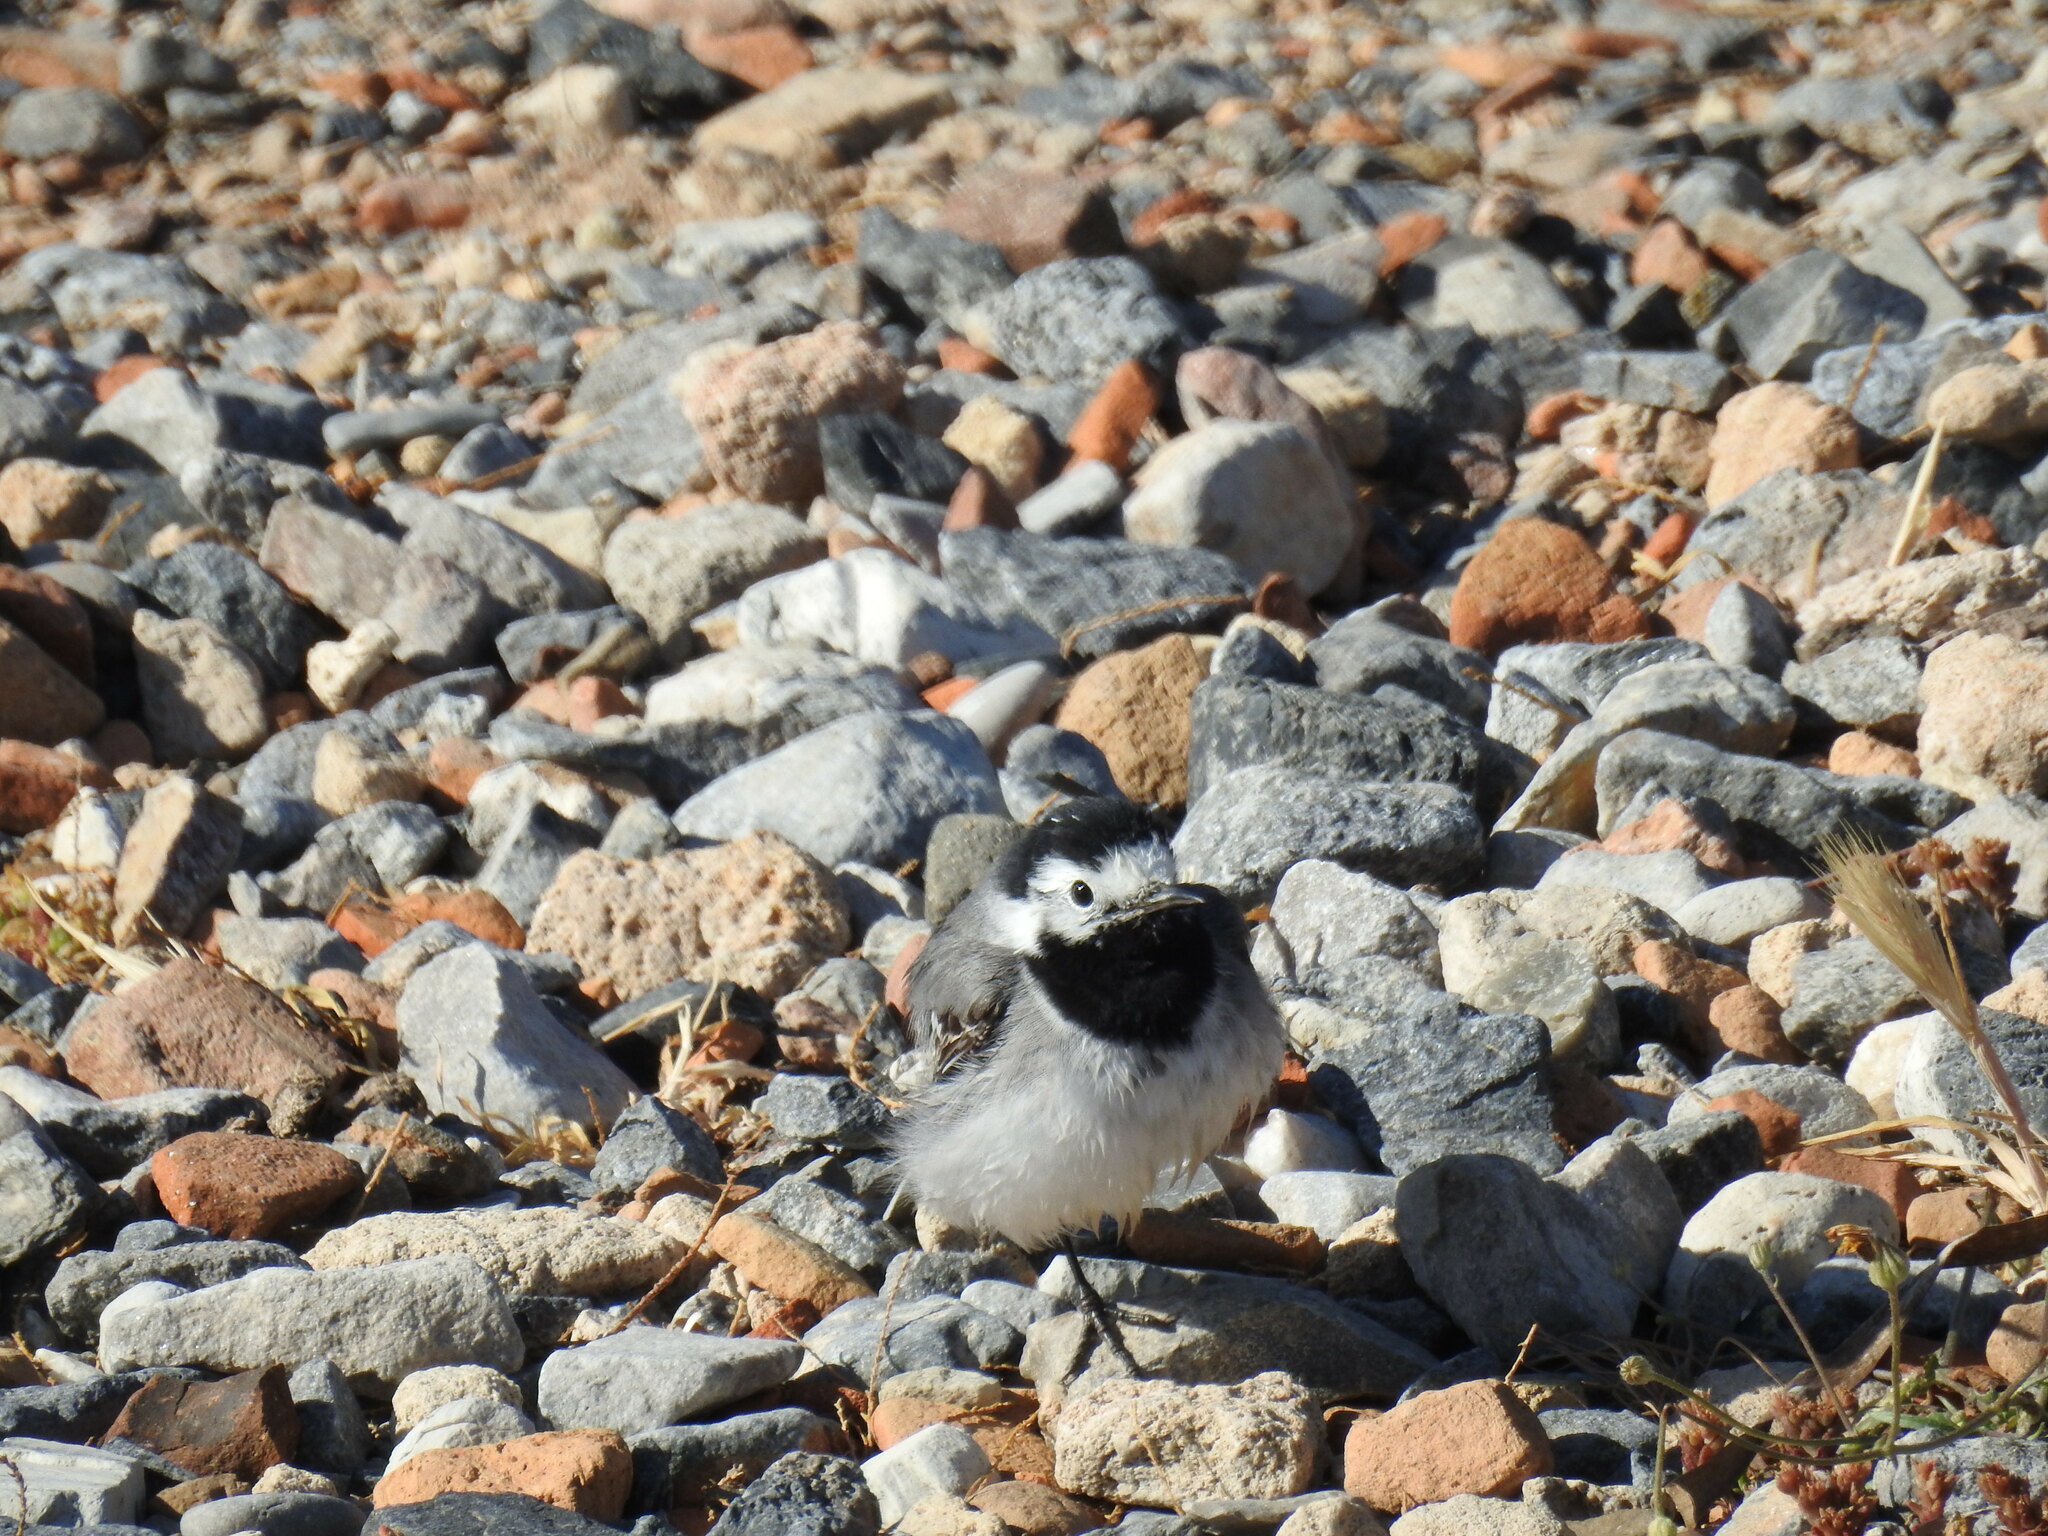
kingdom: Animalia
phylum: Chordata
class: Aves
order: Passeriformes
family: Motacillidae
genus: Motacilla
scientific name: Motacilla alba
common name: White wagtail
